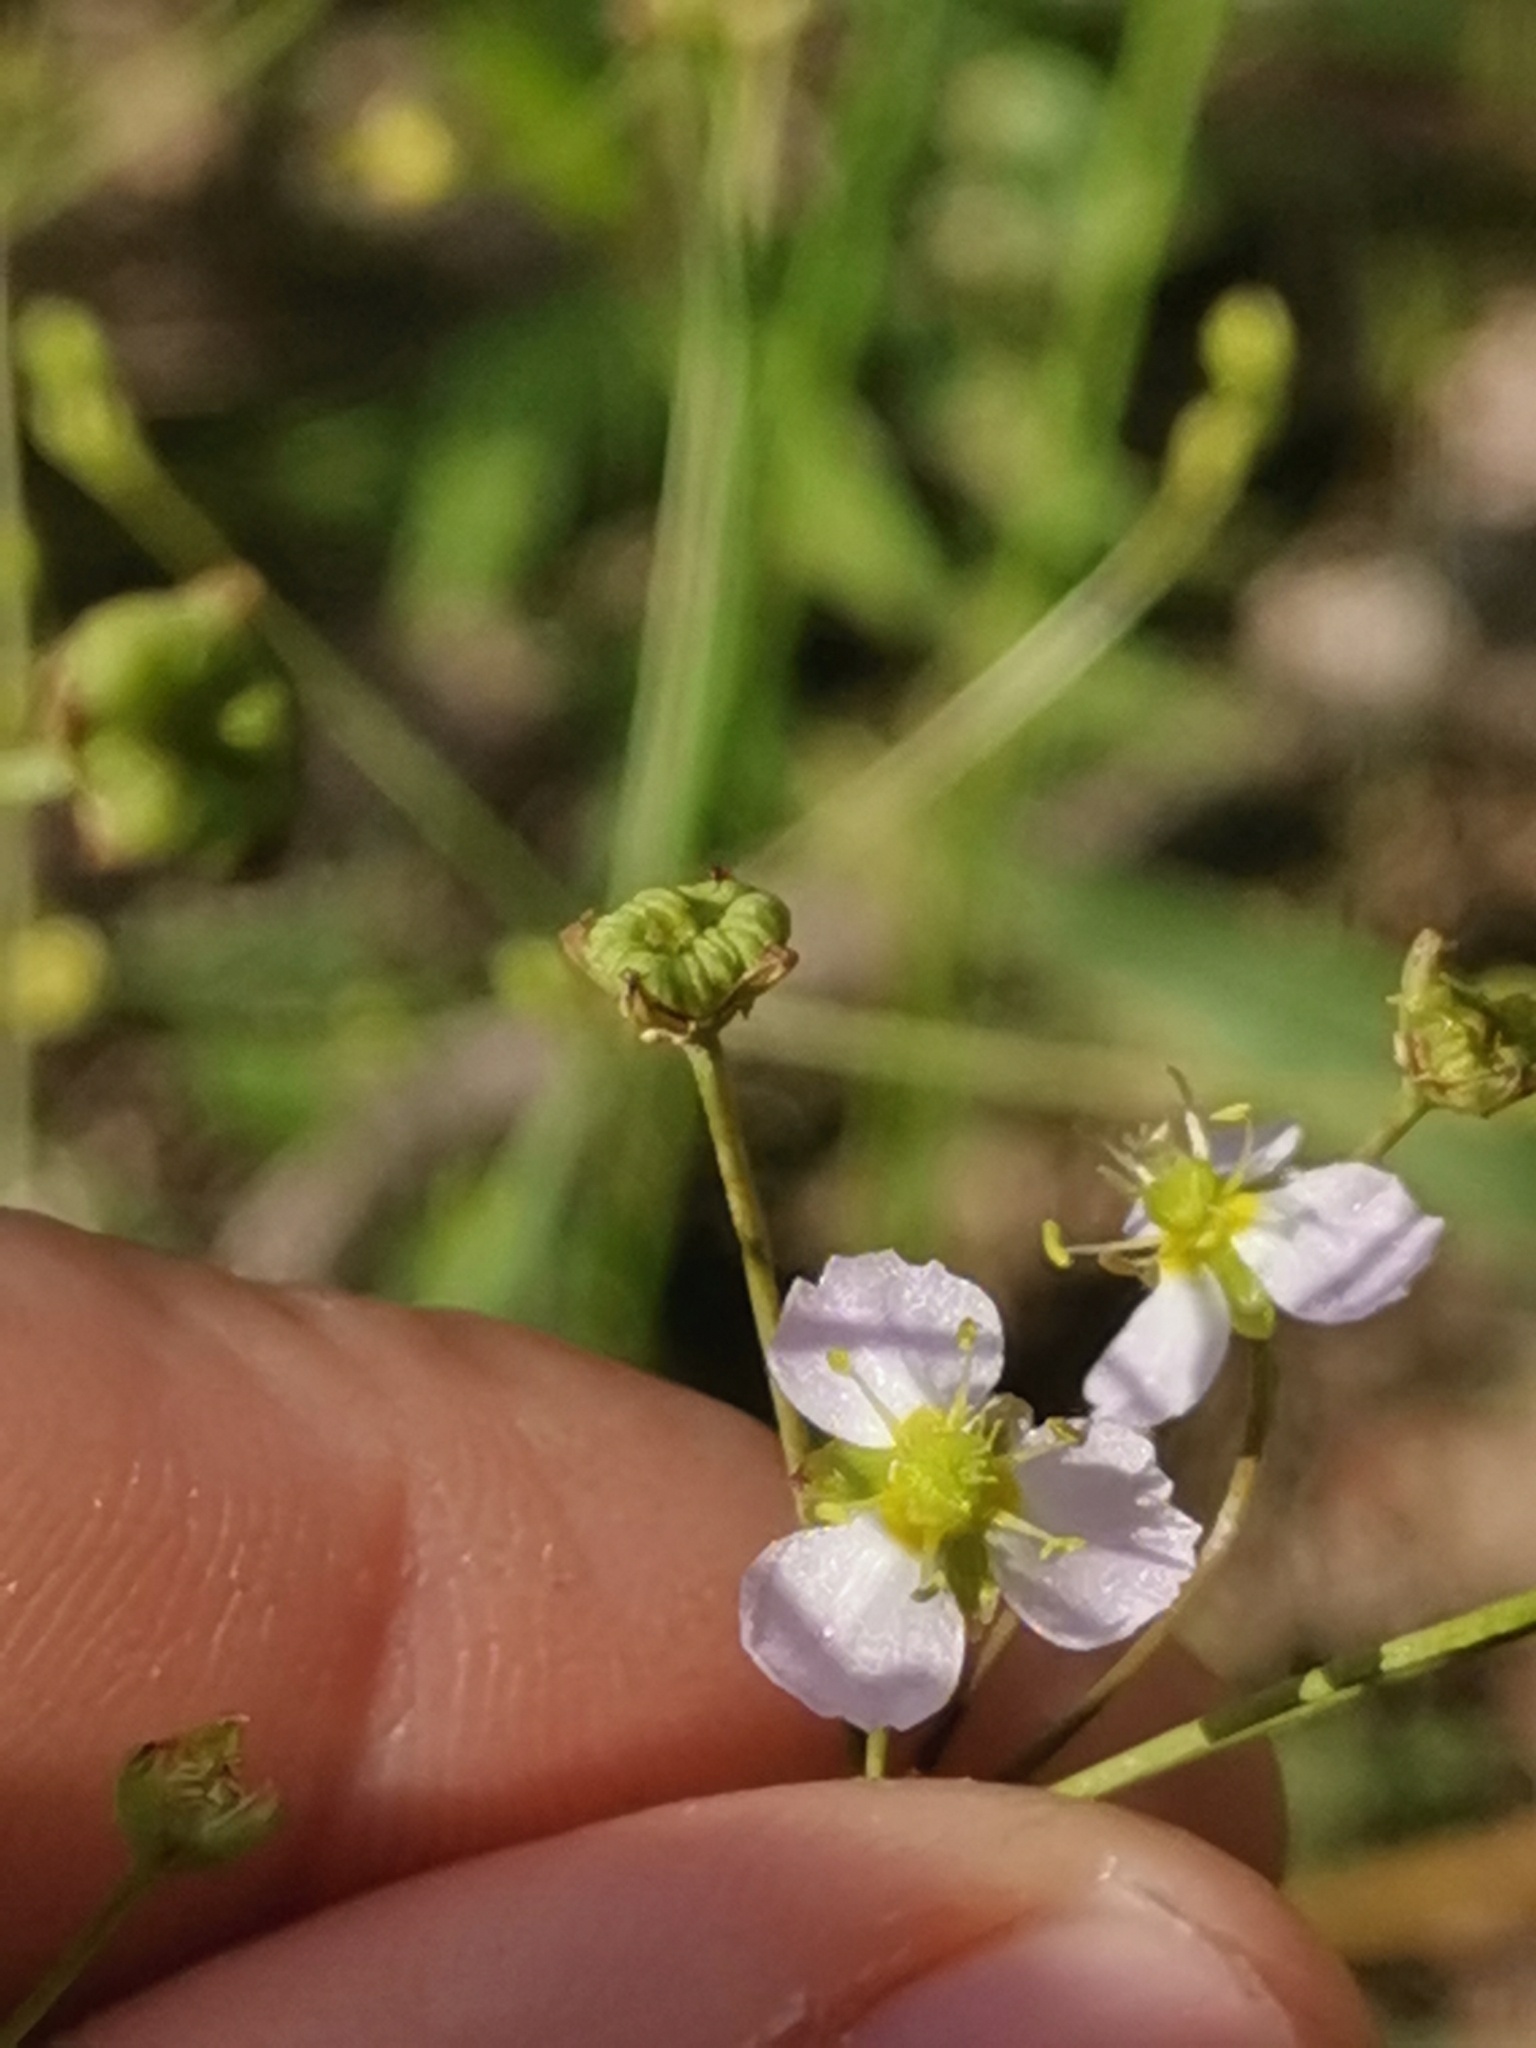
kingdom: Plantae
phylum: Tracheophyta
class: Liliopsida
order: Alismatales
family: Alismataceae
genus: Alisma
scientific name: Alisma plantago-aquatica
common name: Water-plantain
